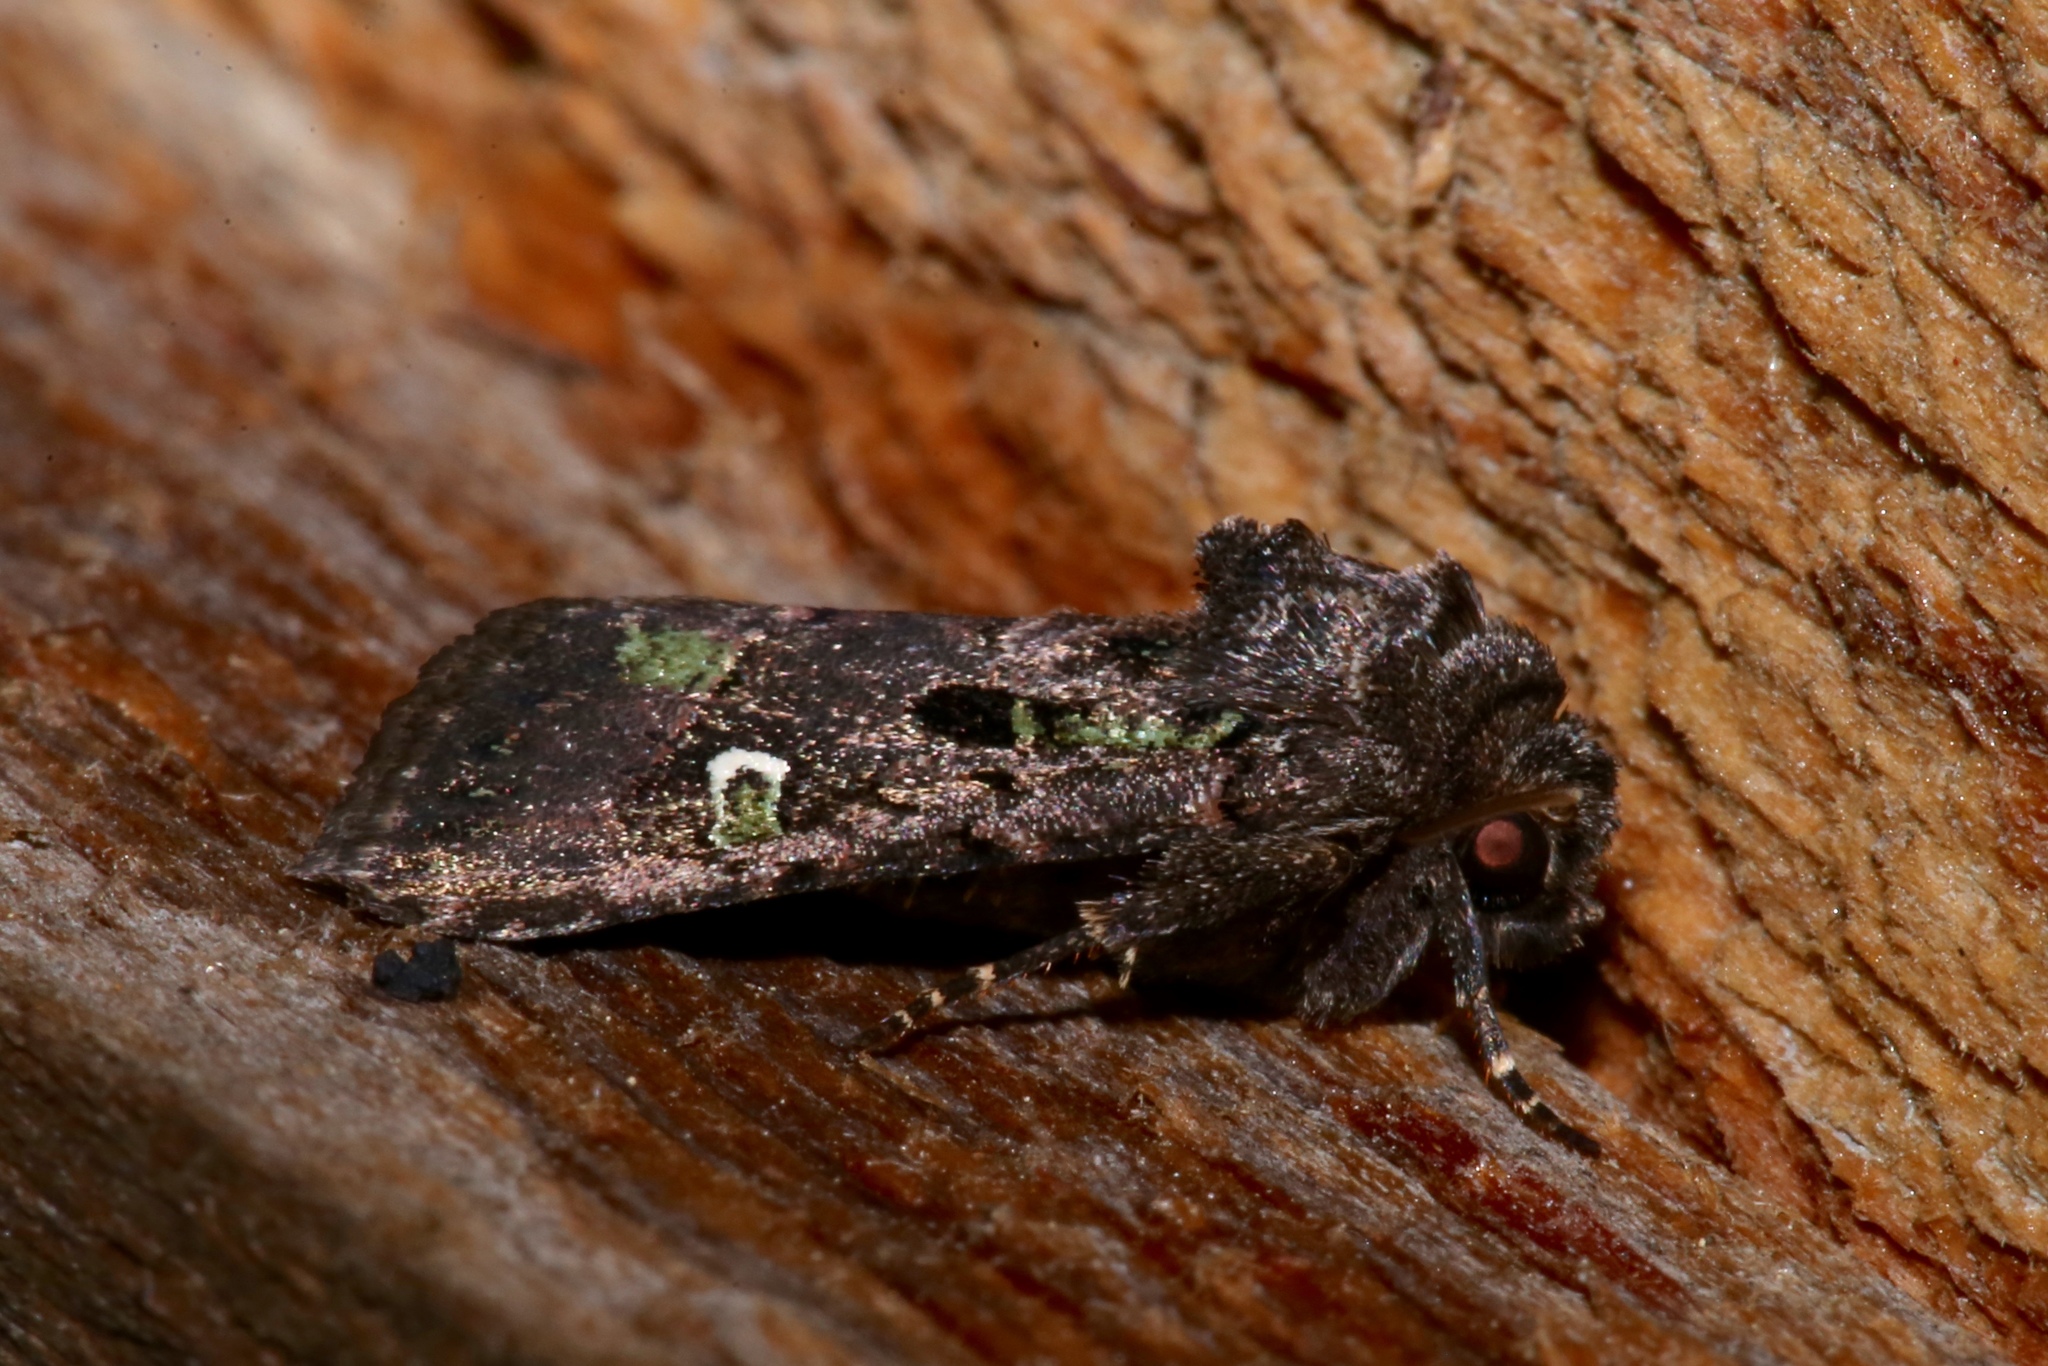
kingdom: Animalia
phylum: Arthropoda
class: Insecta
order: Lepidoptera
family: Noctuidae
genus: Lacinipolia
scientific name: Lacinipolia renigera
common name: Kidney-spotted minor
